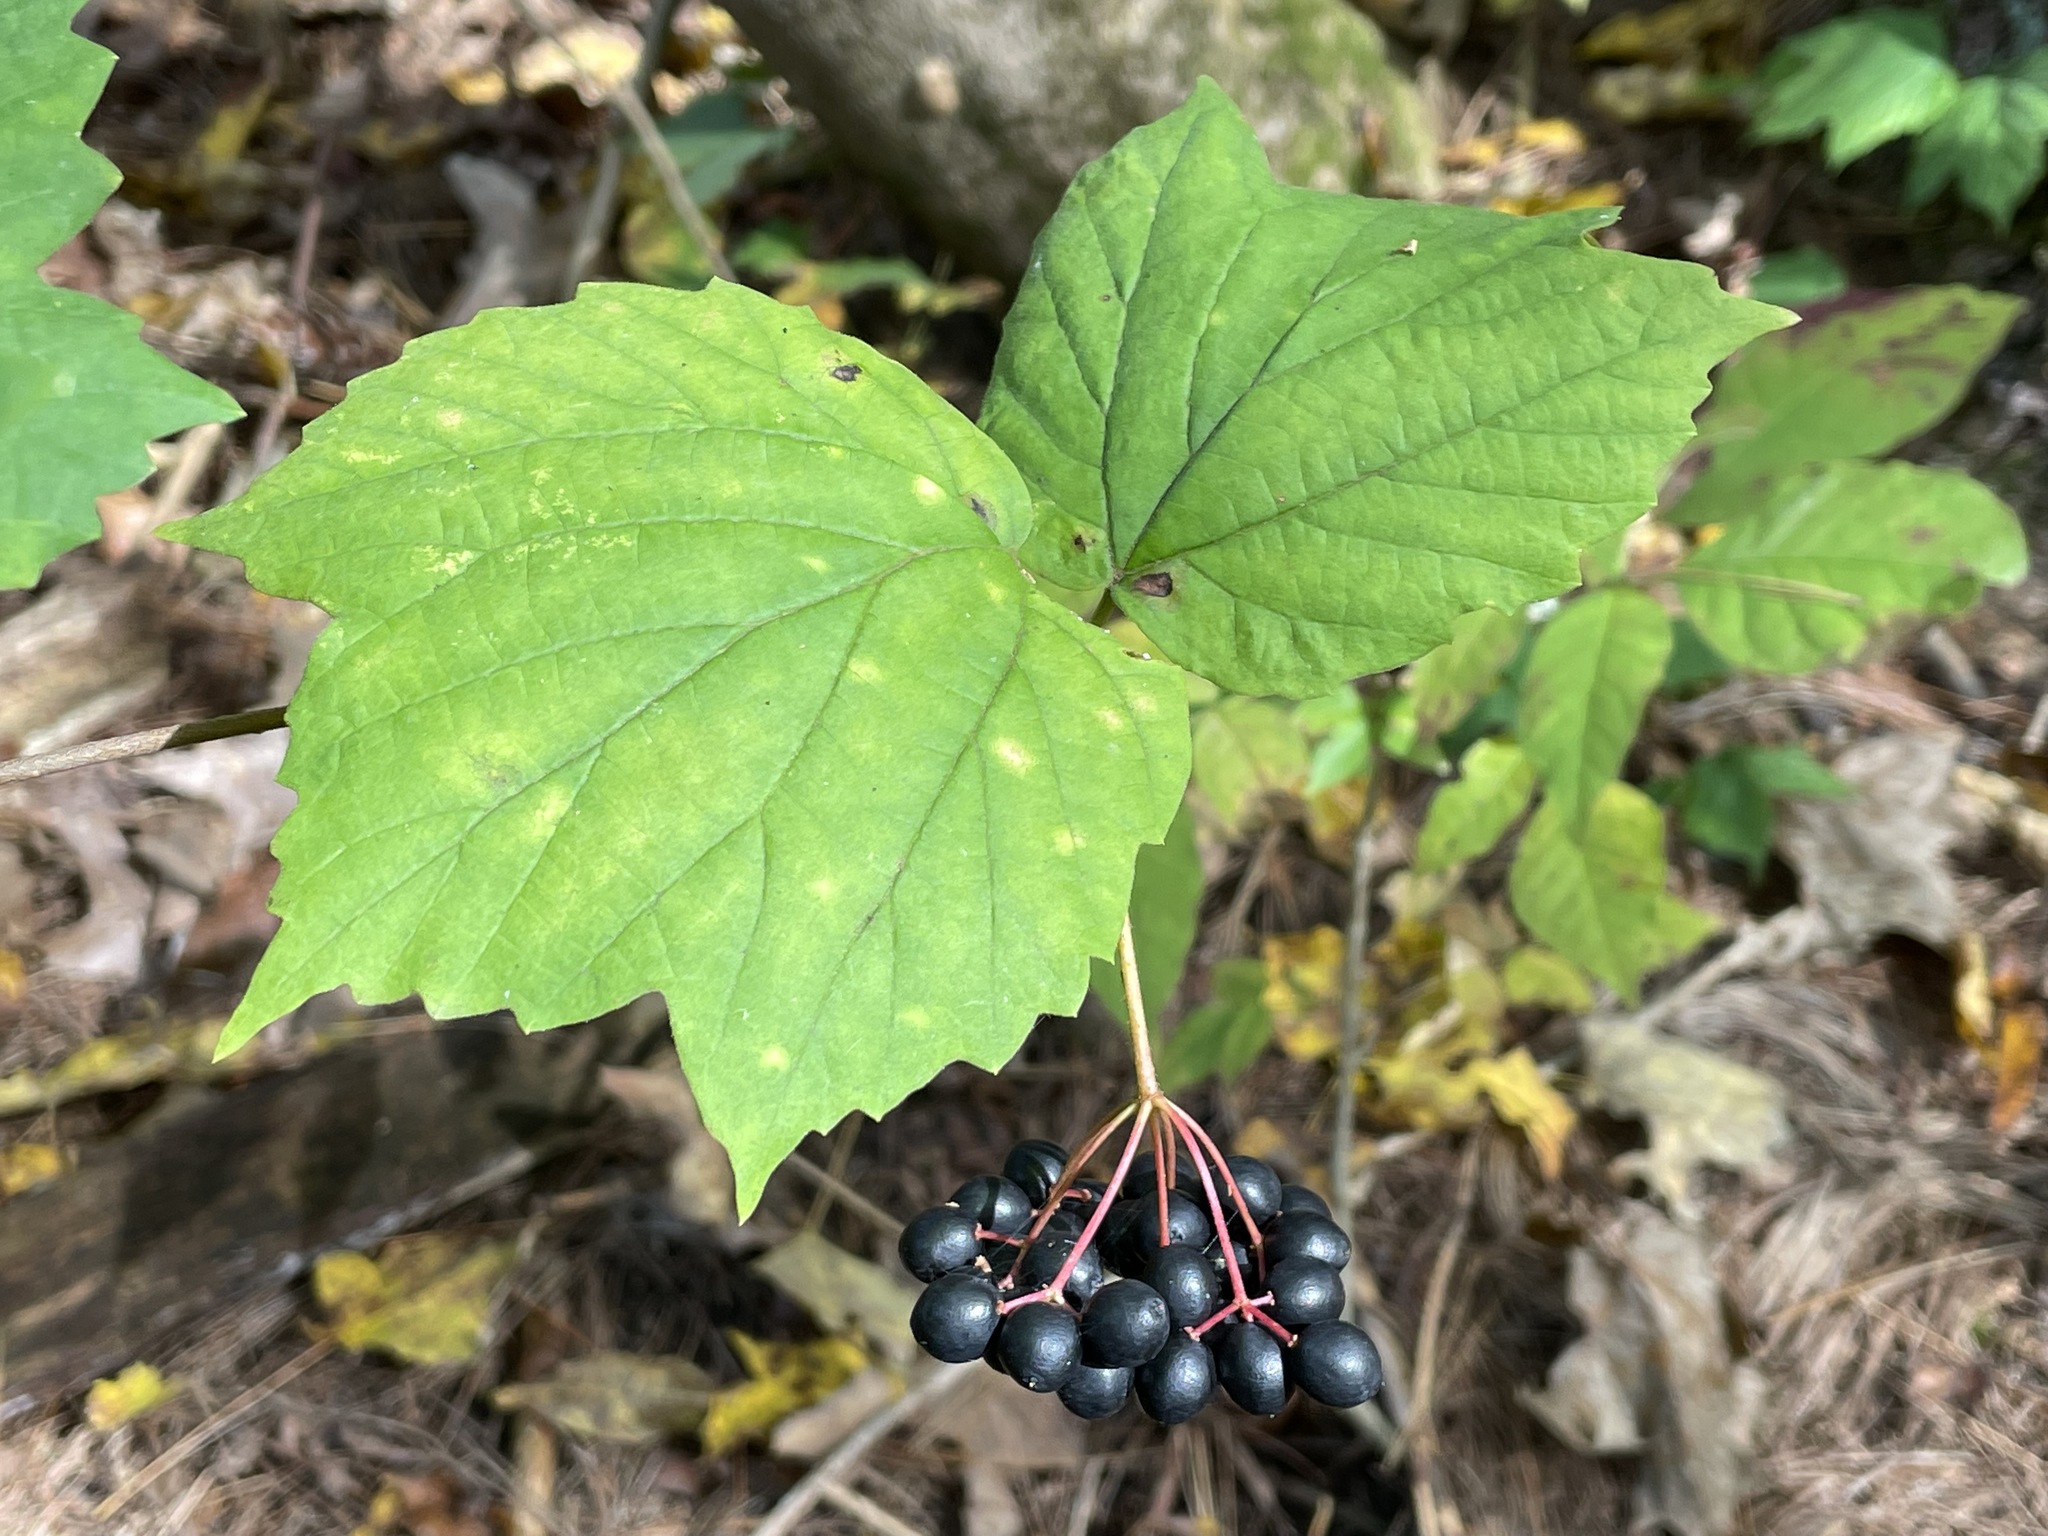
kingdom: Plantae
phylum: Tracheophyta
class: Magnoliopsida
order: Dipsacales
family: Viburnaceae
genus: Viburnum
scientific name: Viburnum acerifolium
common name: Dockmackie
